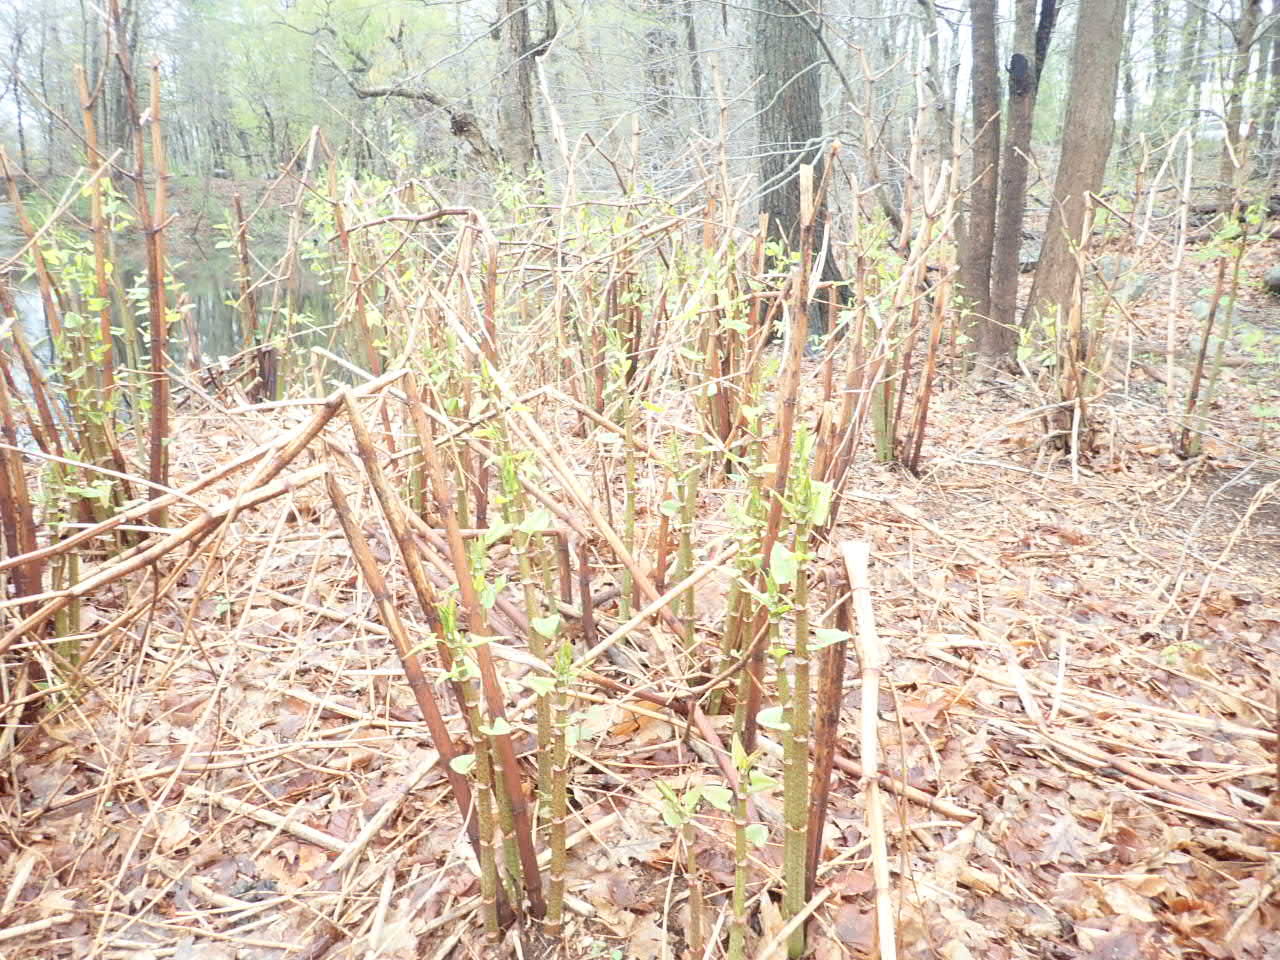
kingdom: Plantae
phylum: Tracheophyta
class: Magnoliopsida
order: Caryophyllales
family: Polygonaceae
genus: Reynoutria
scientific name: Reynoutria japonica
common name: Japanese knotweed
